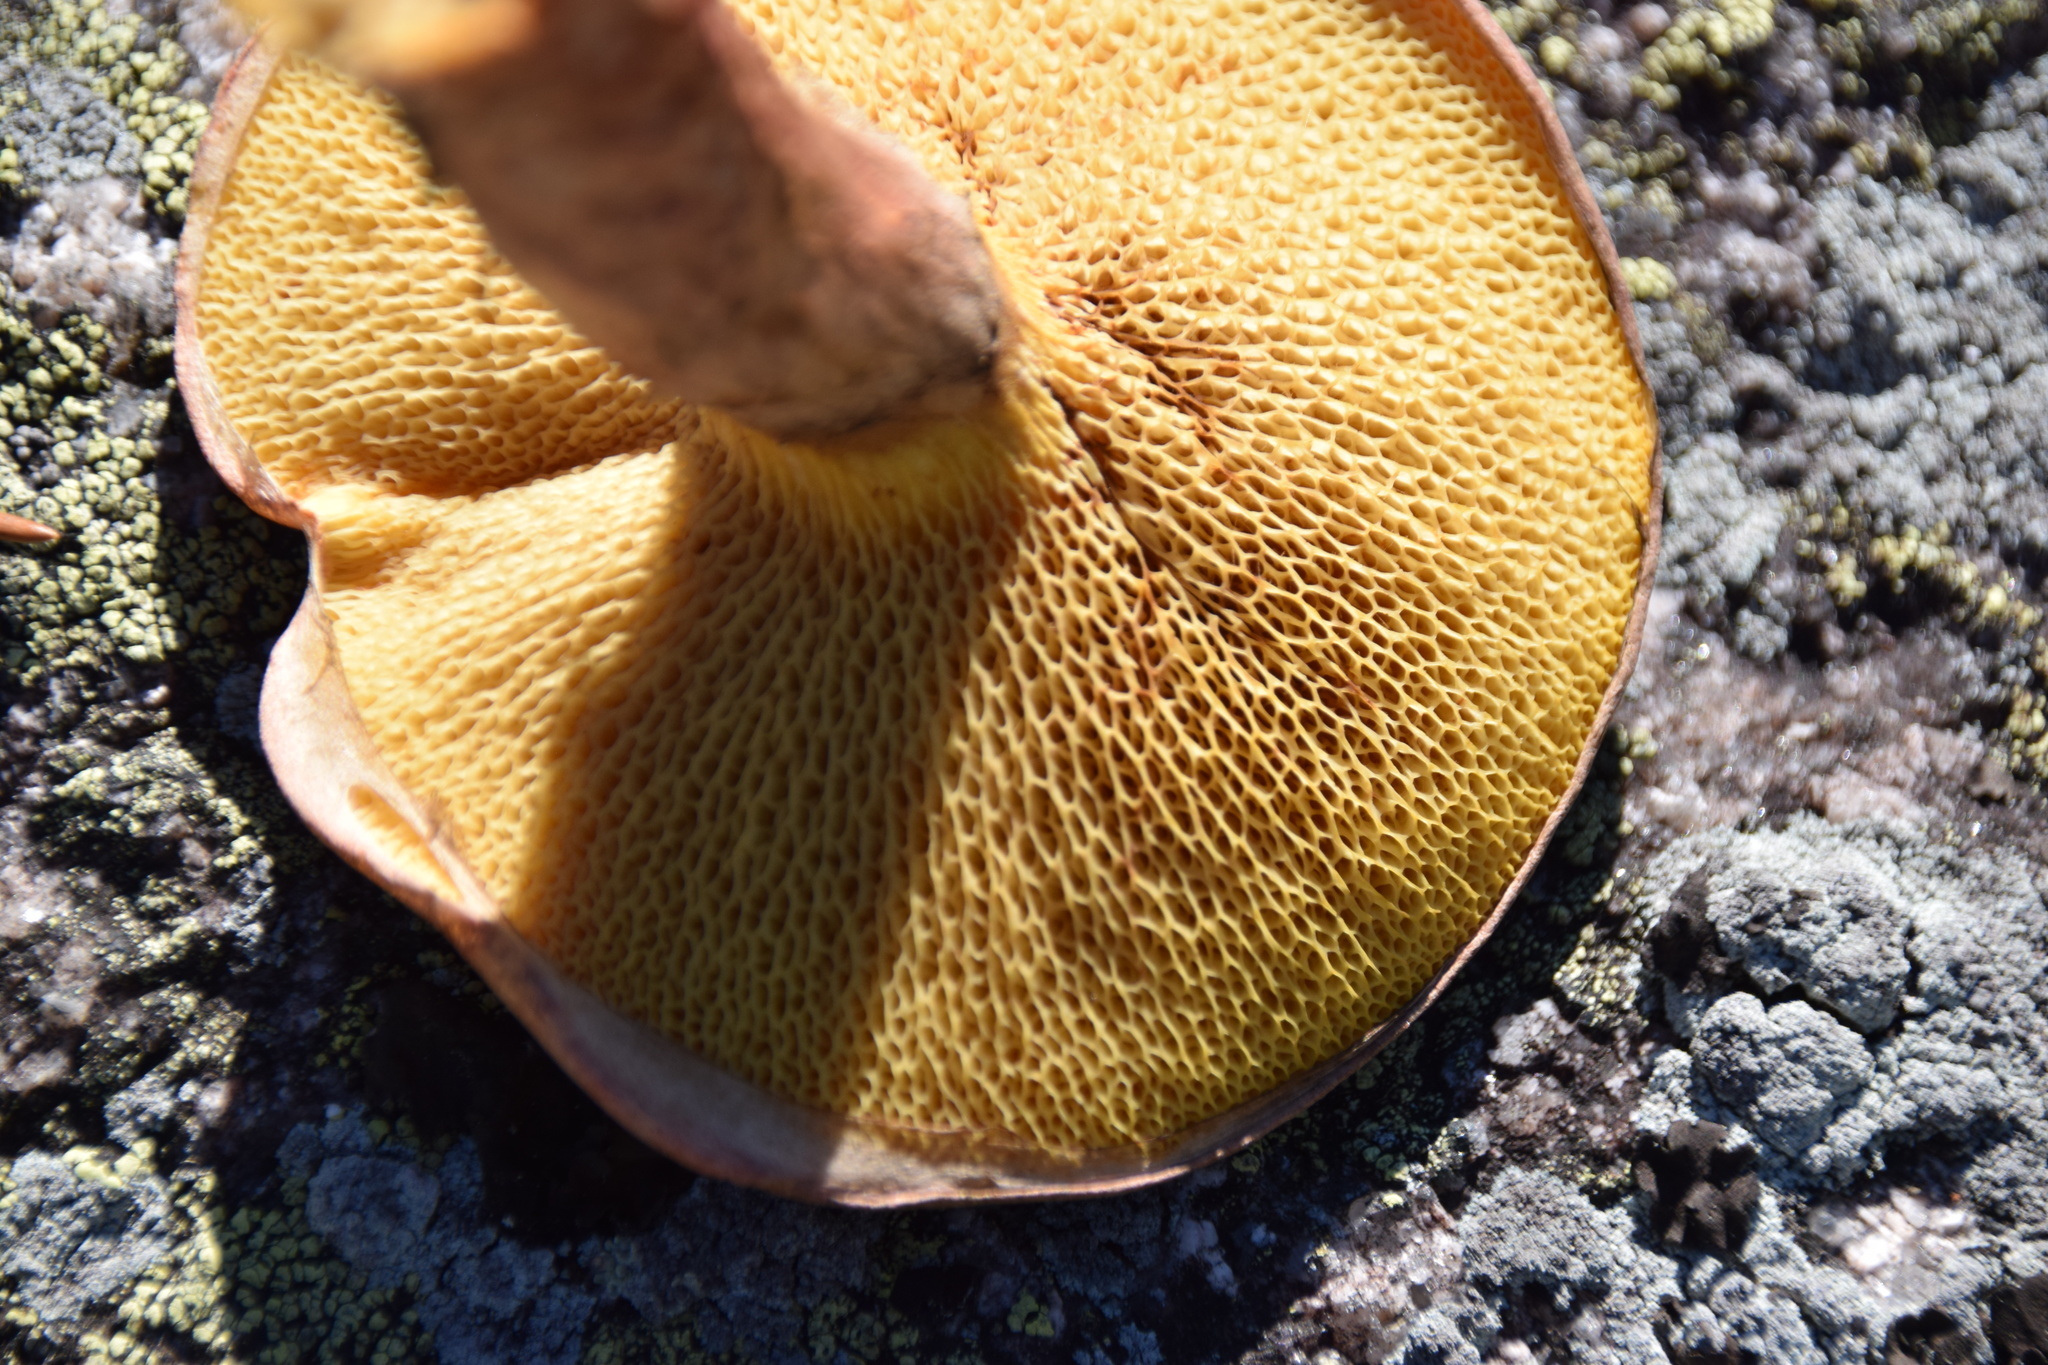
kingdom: Fungi
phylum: Basidiomycota
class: Agaricomycetes
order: Boletales
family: Suillaceae
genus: Suillus
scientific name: Suillus spraguei
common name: Painted suillus
